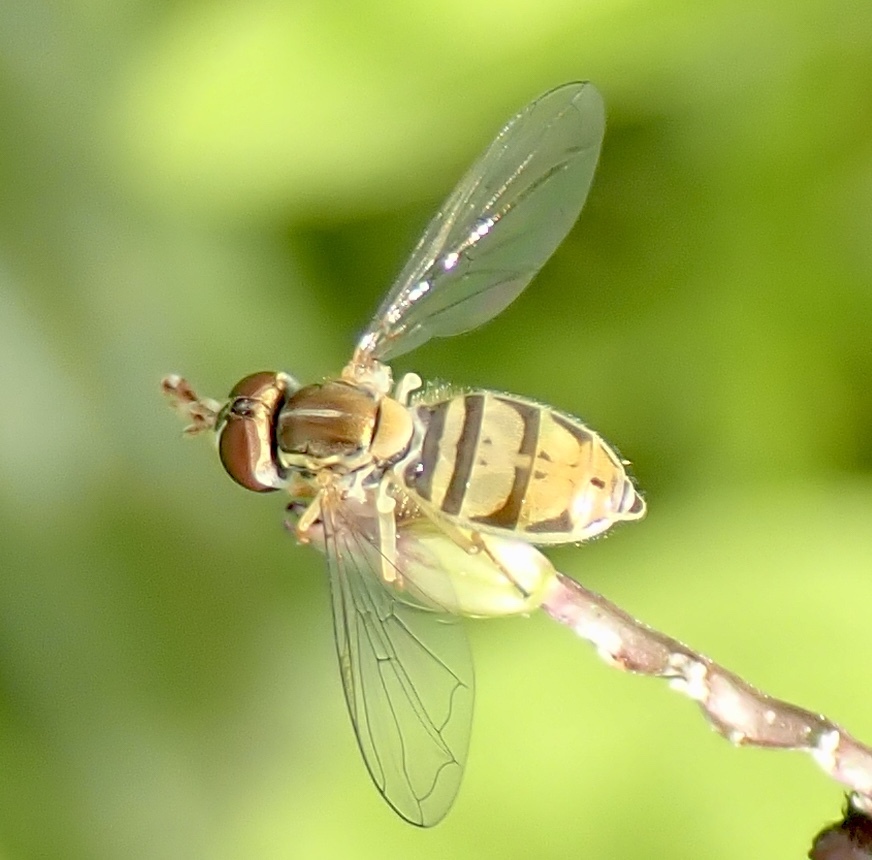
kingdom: Animalia
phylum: Arthropoda
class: Insecta
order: Diptera
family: Syrphidae
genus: Toxomerus
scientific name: Toxomerus marginatus
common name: Syrphid fly
